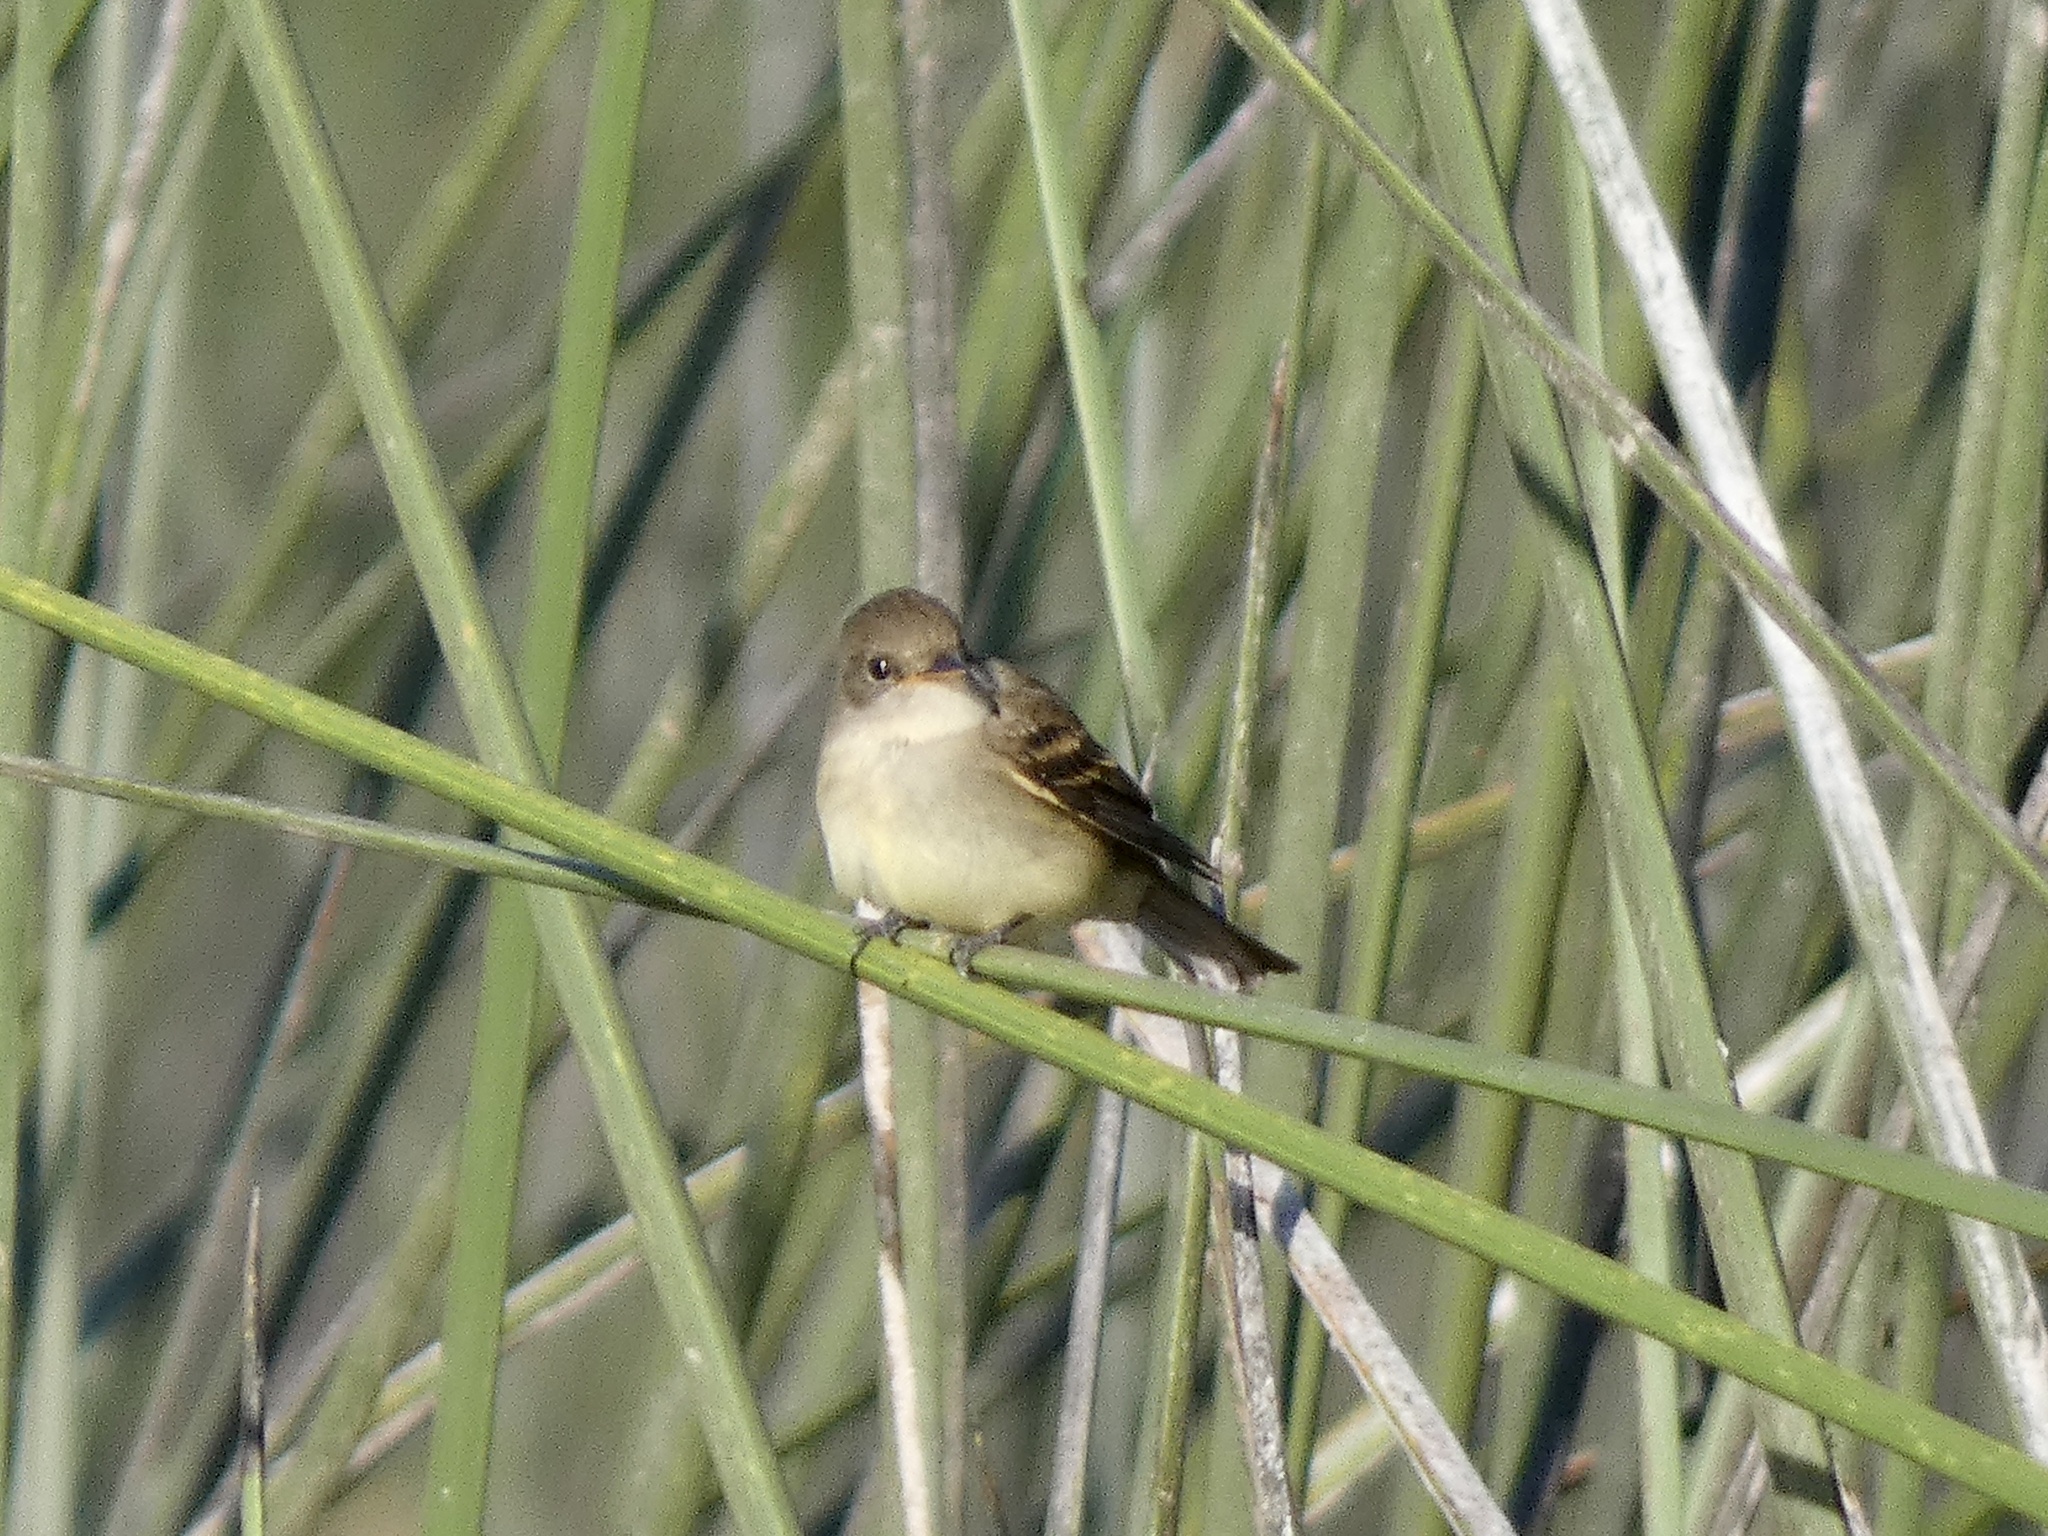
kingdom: Animalia
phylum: Chordata
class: Aves
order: Passeriformes
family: Tyrannidae
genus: Empidonax
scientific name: Empidonax traillii
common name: Willow flycatcher
